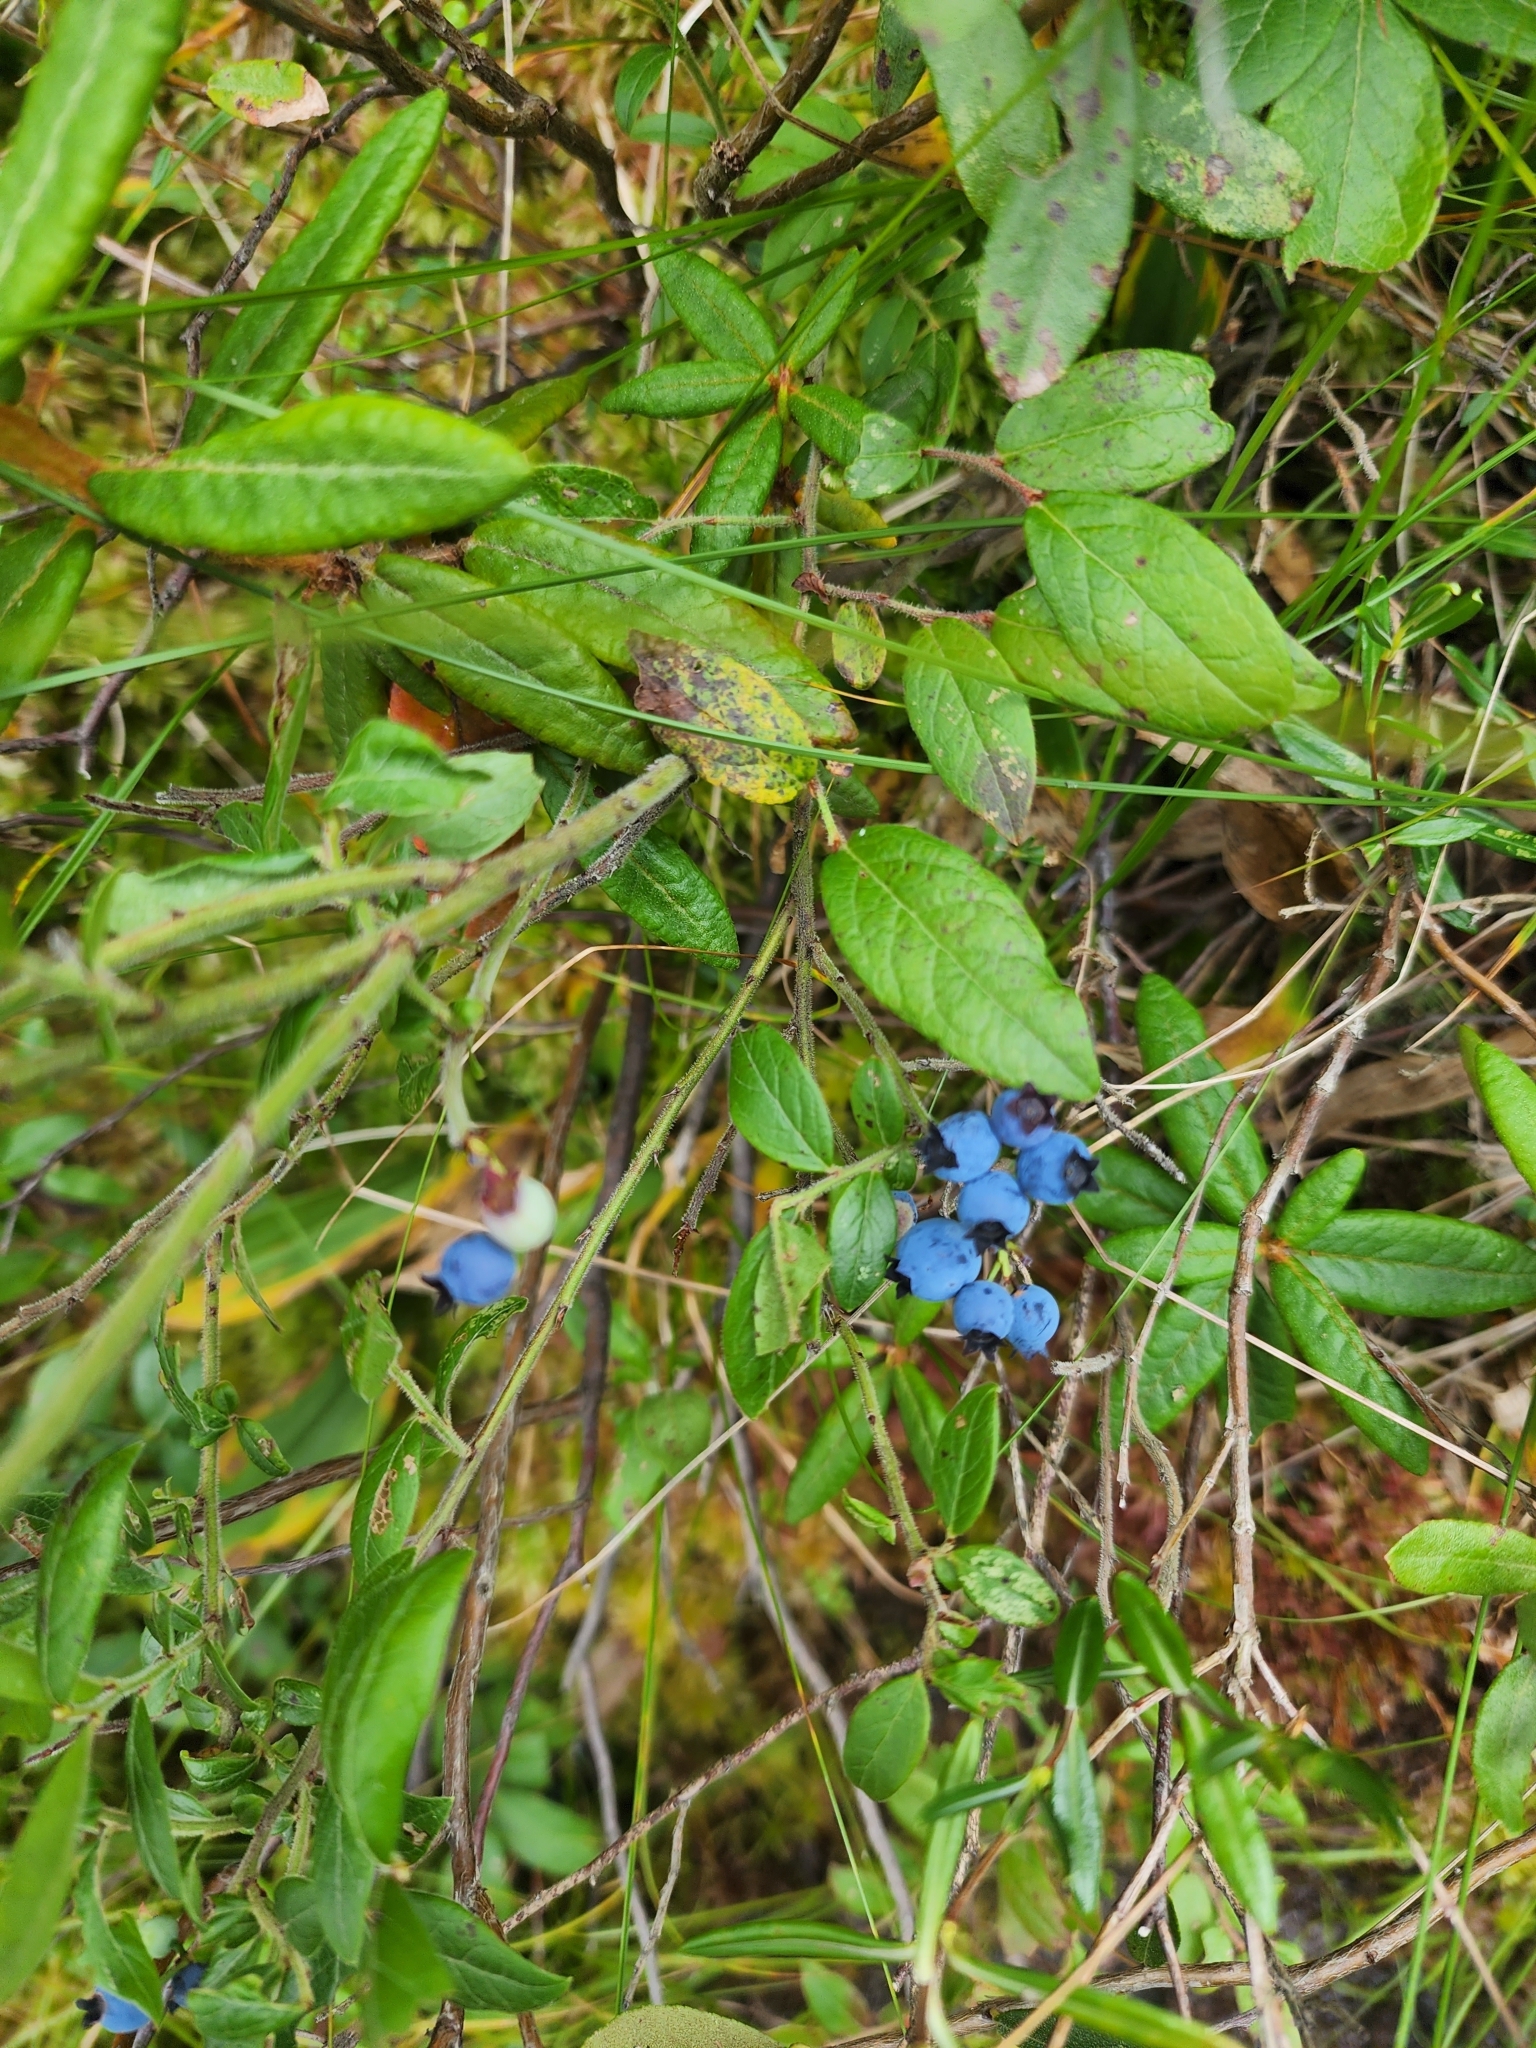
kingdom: Plantae
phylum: Tracheophyta
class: Magnoliopsida
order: Ericales
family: Ericaceae
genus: Vaccinium
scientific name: Vaccinium myrtilloides
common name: Canada blueberry
